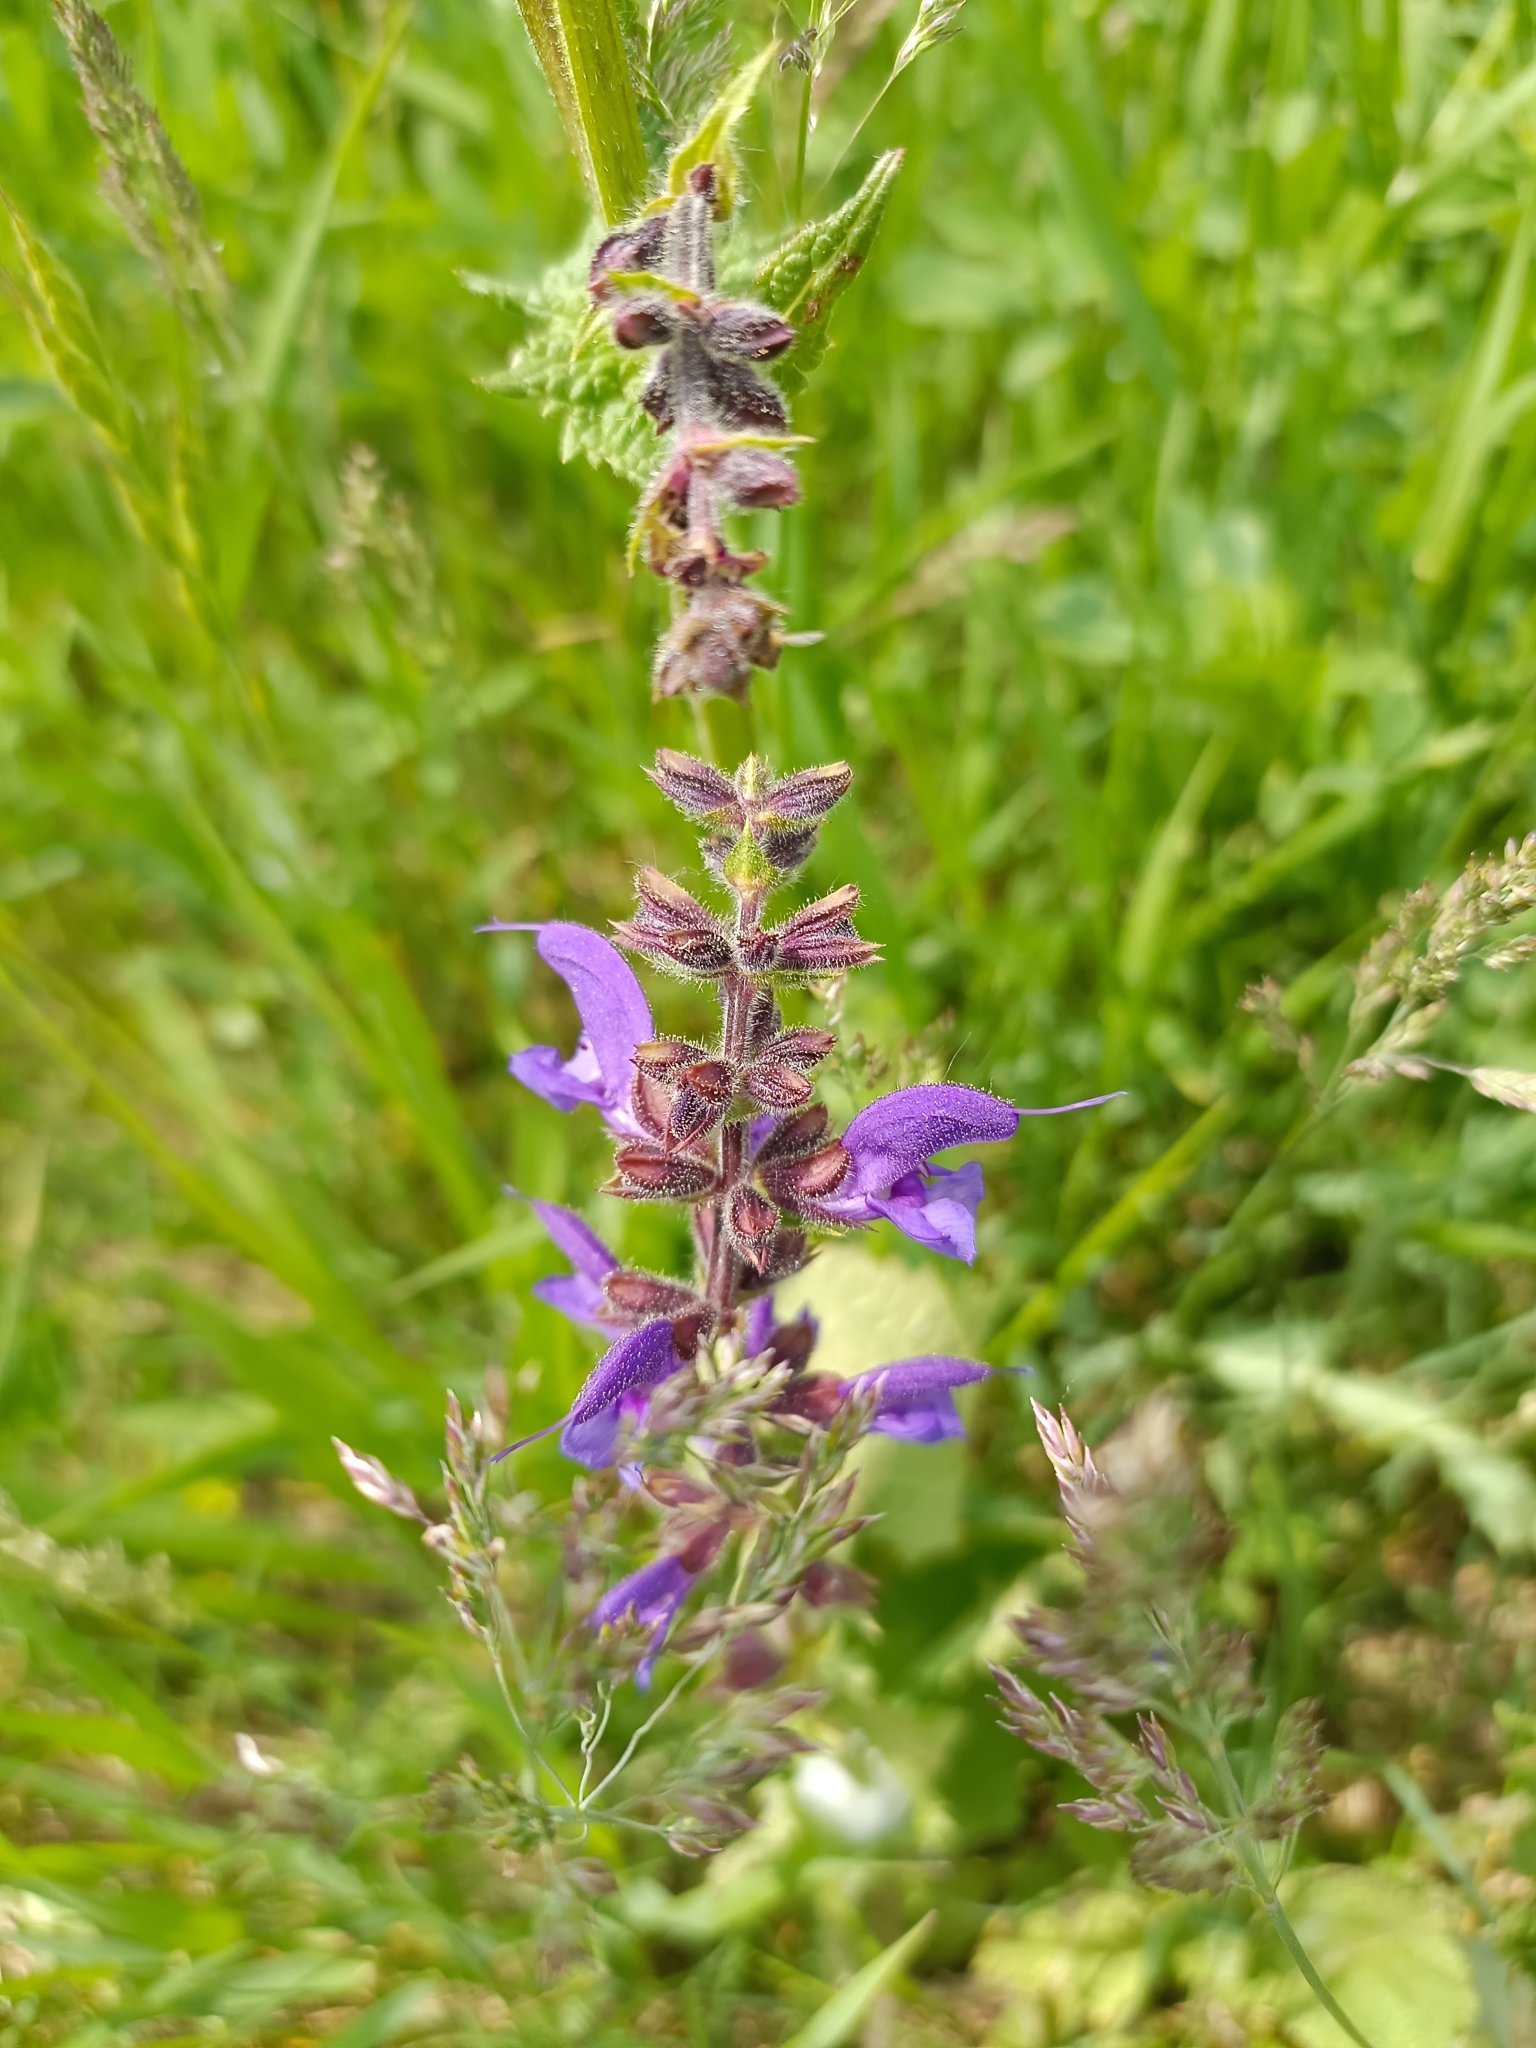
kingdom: Plantae
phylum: Tracheophyta
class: Magnoliopsida
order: Lamiales
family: Lamiaceae
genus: Salvia
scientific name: Salvia pratensis
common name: Meadow sage
